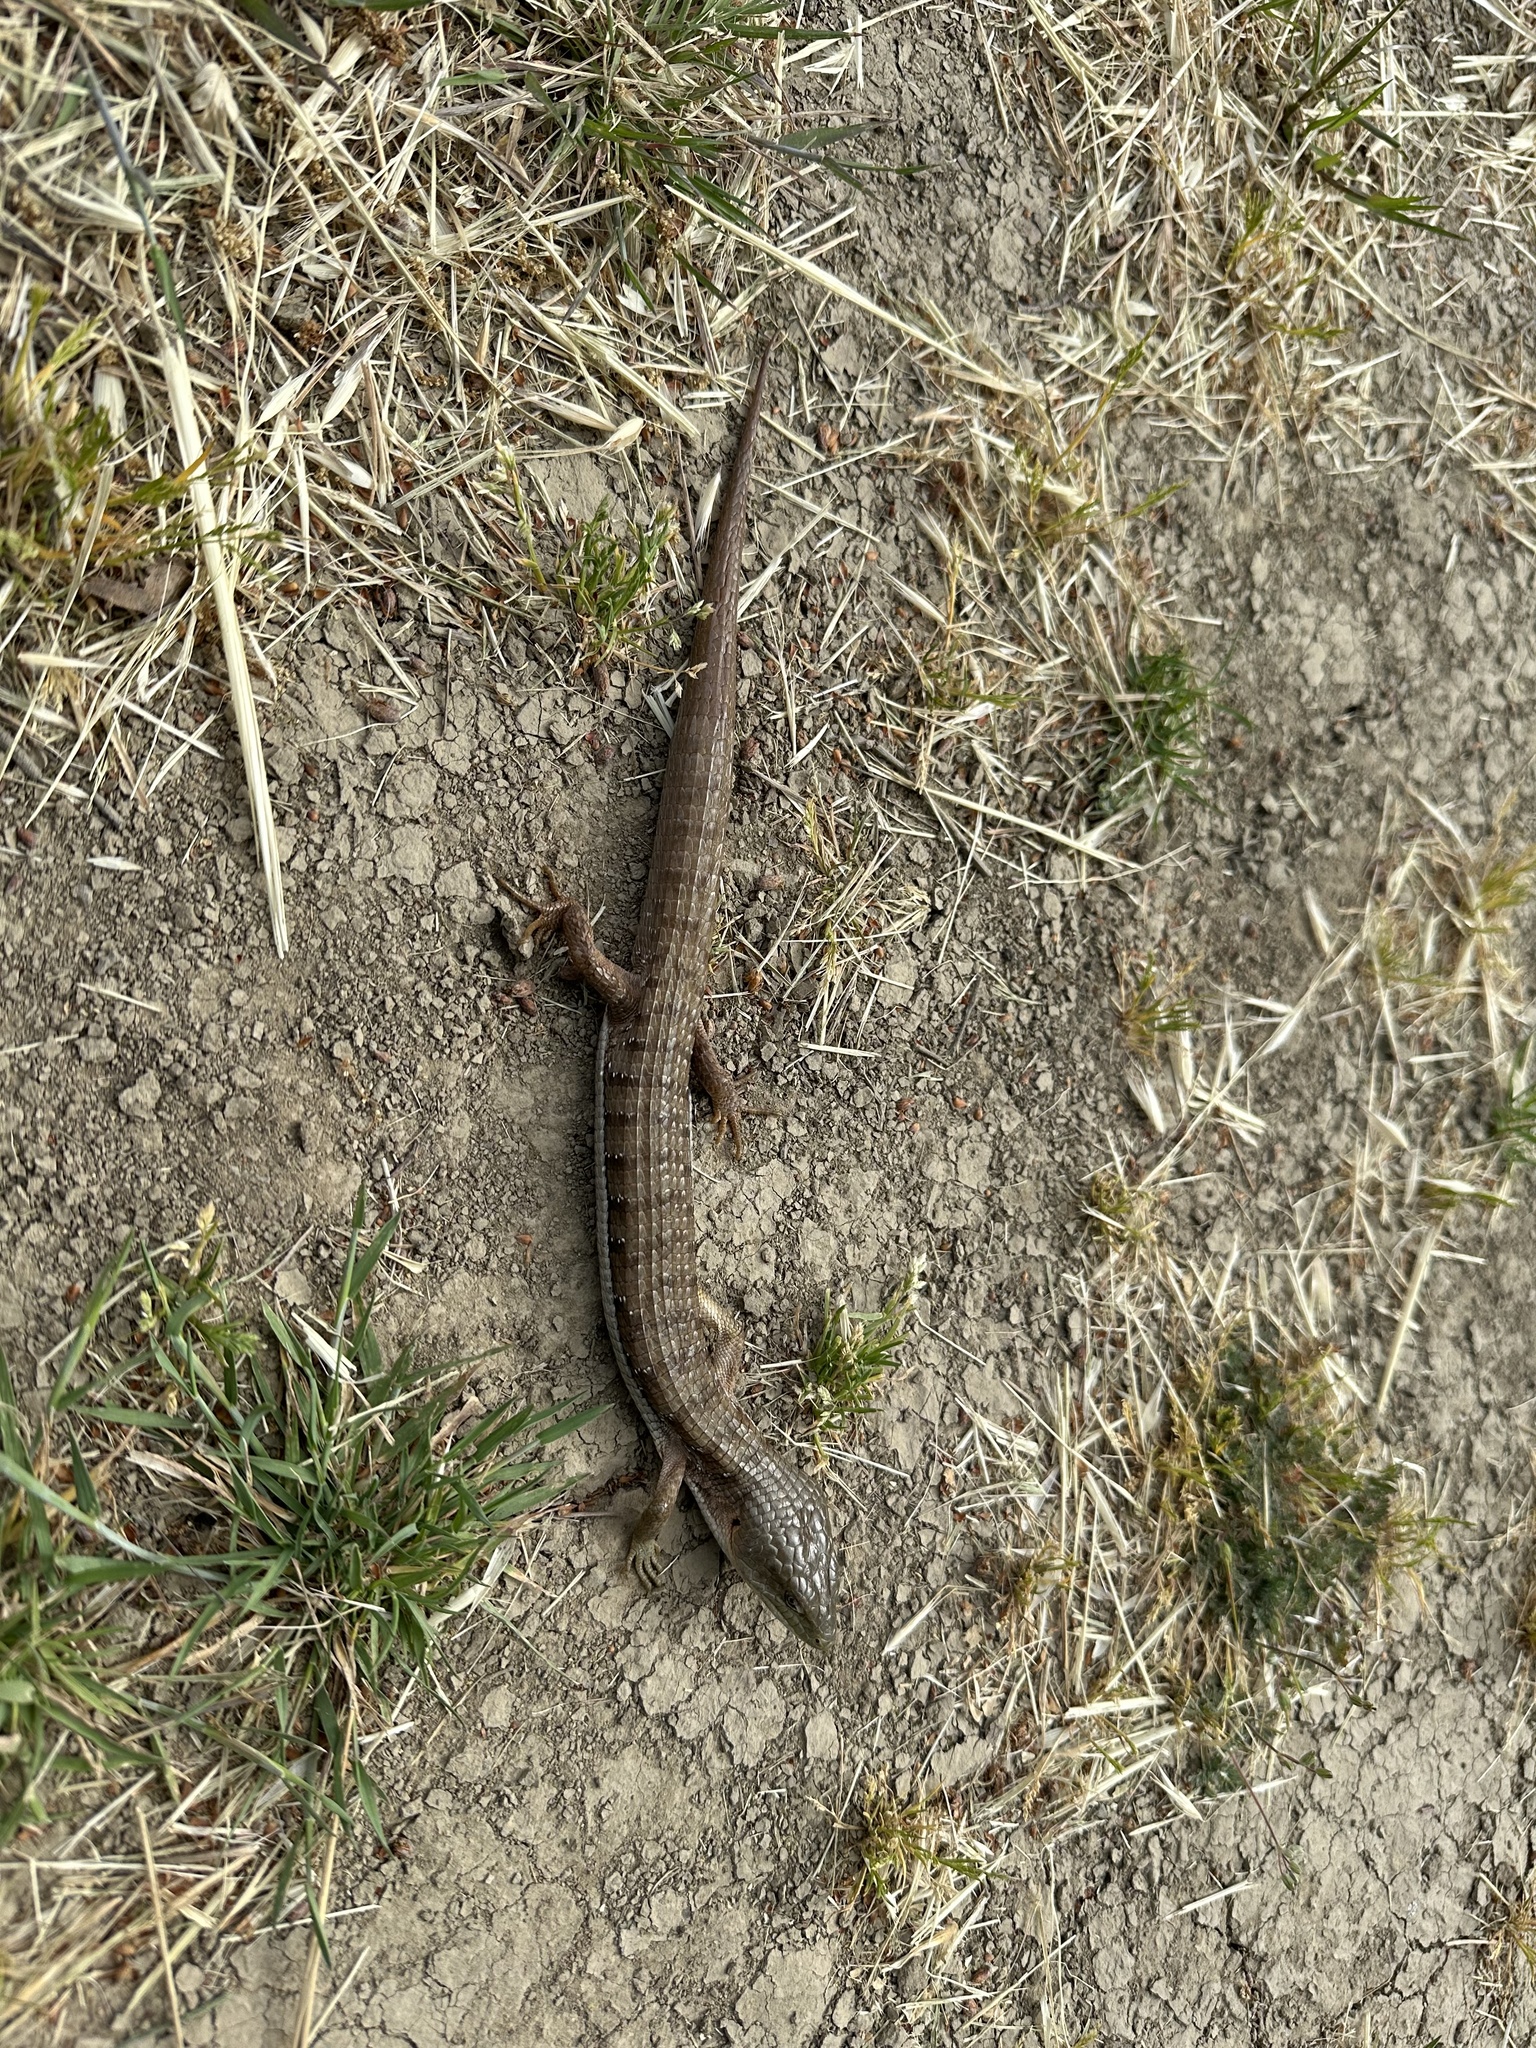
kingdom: Animalia
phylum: Chordata
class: Squamata
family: Anguidae
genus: Elgaria
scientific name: Elgaria multicarinata
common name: Southern alligator lizard
